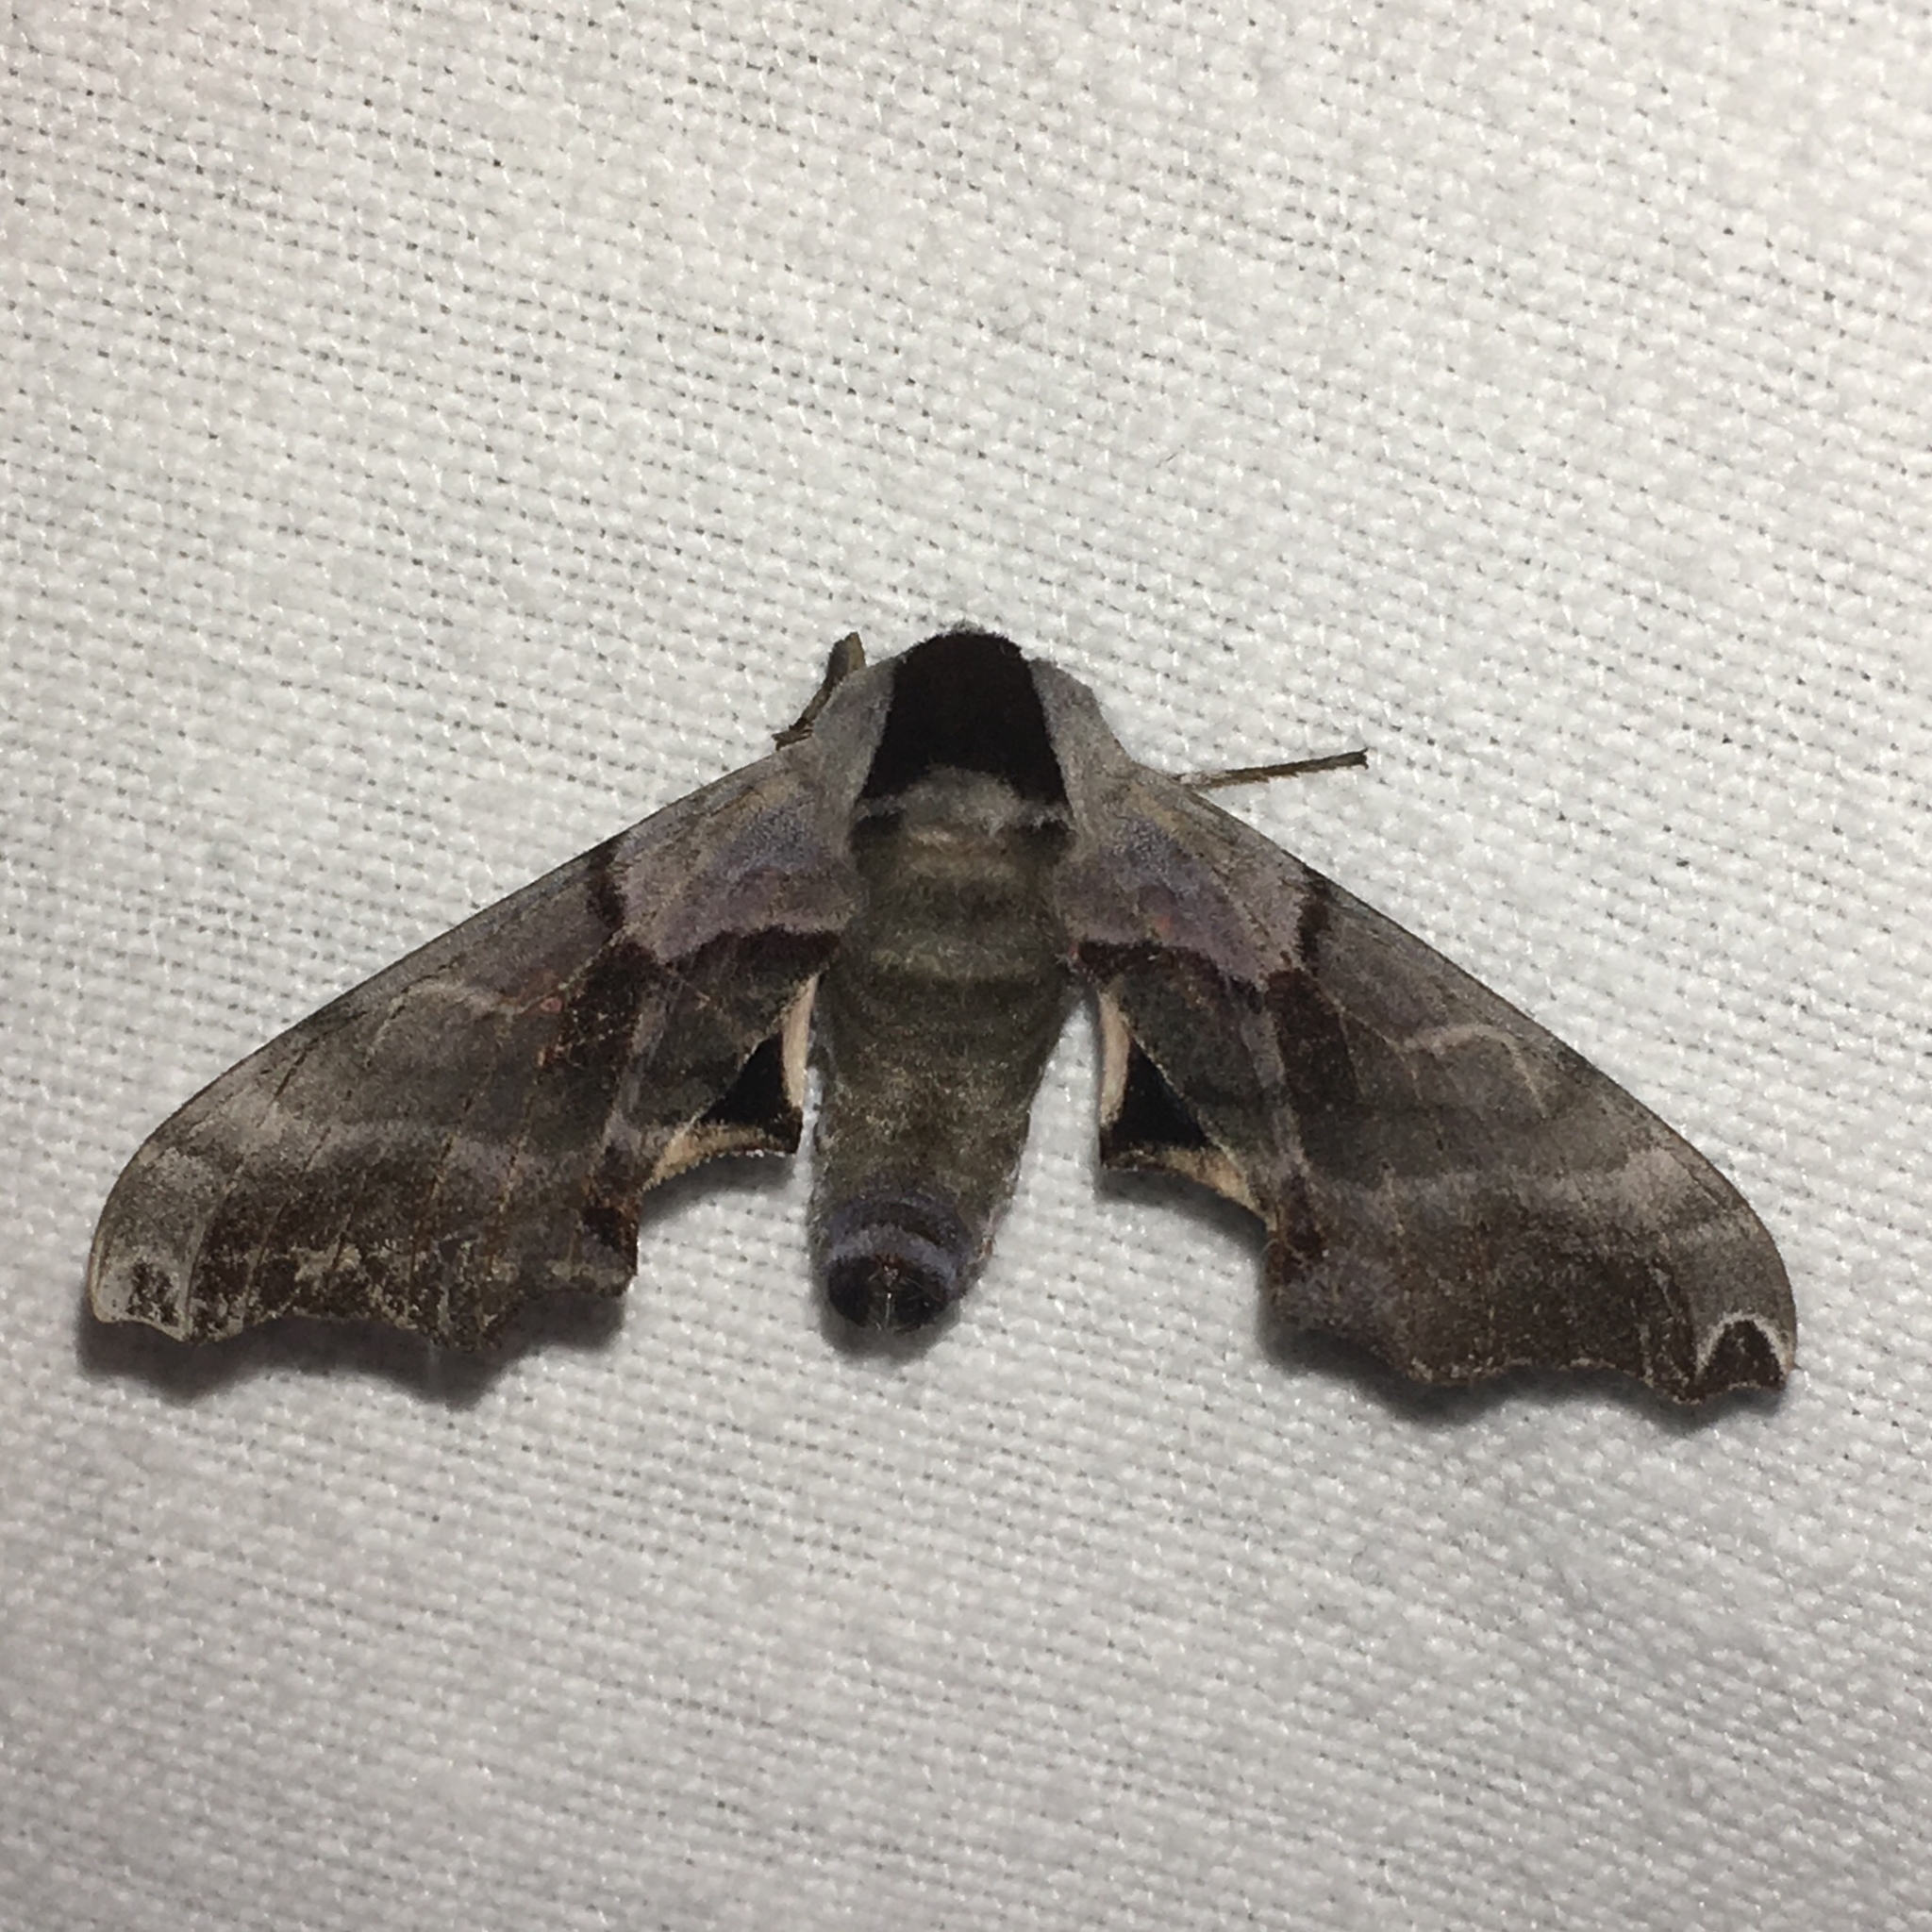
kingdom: Animalia
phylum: Arthropoda
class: Insecta
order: Lepidoptera
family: Sphingidae
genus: Smerinthus
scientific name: Smerinthus jamaicensis
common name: Twin spotted sphinx
